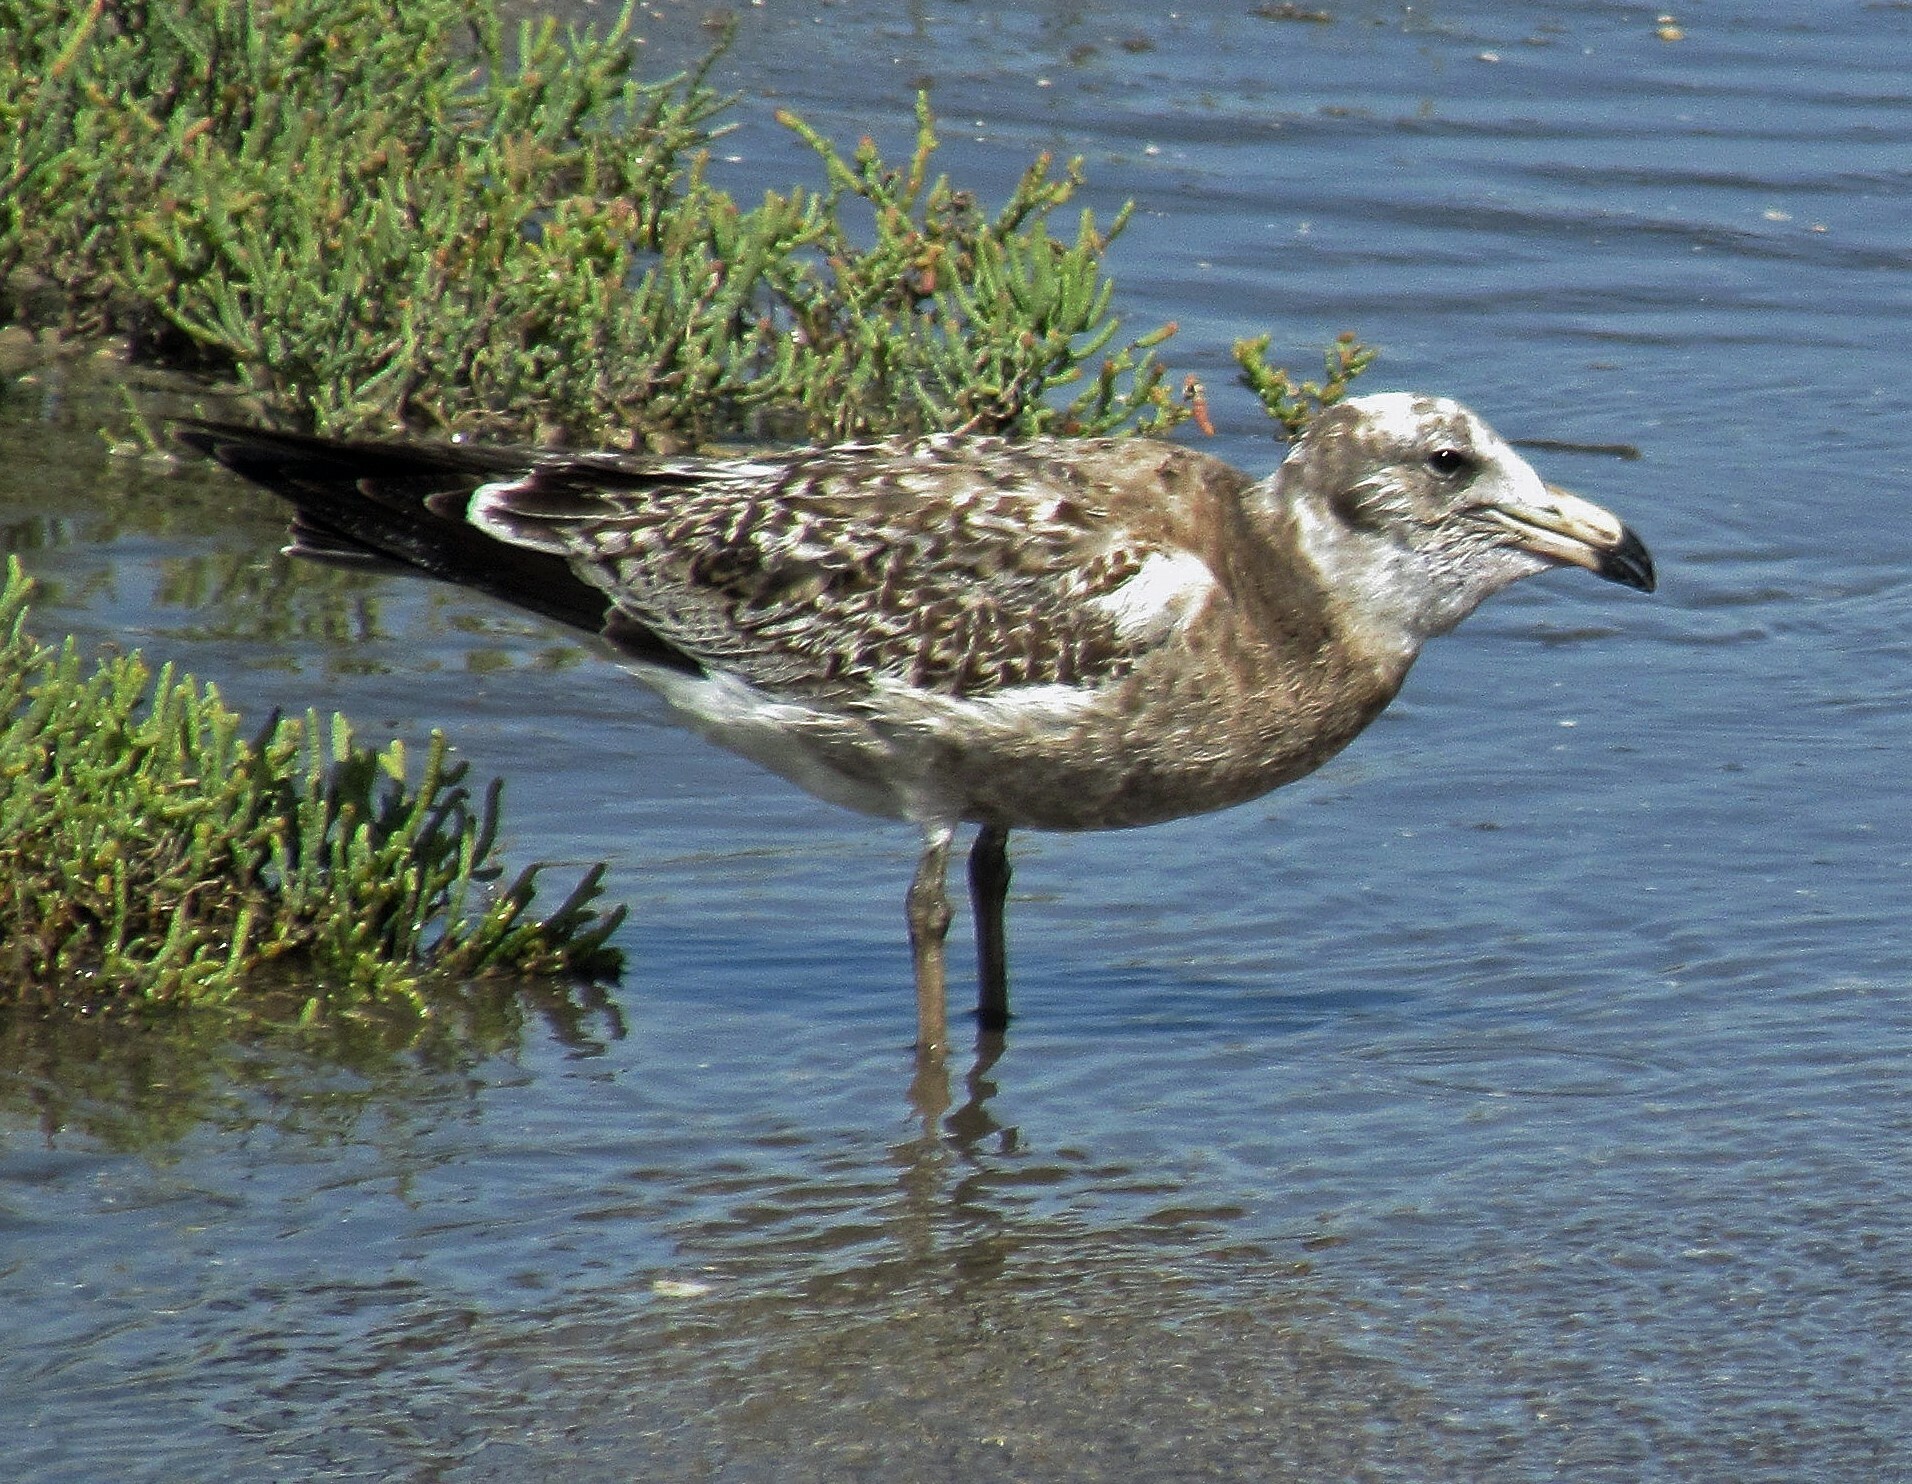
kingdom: Animalia
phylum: Chordata
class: Aves
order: Charadriiformes
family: Laridae
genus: Larus
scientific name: Larus atlanticus
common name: Olrog's gull
